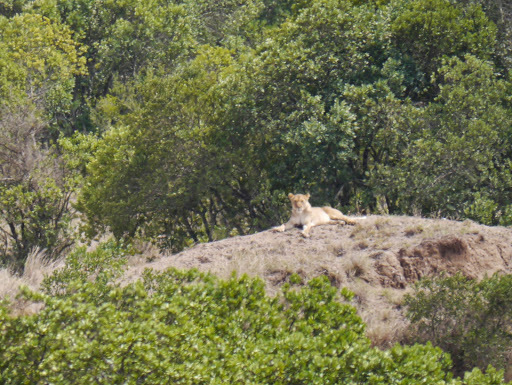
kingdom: Animalia
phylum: Chordata
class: Mammalia
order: Carnivora
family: Felidae
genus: Panthera
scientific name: Panthera leo
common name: Lion
